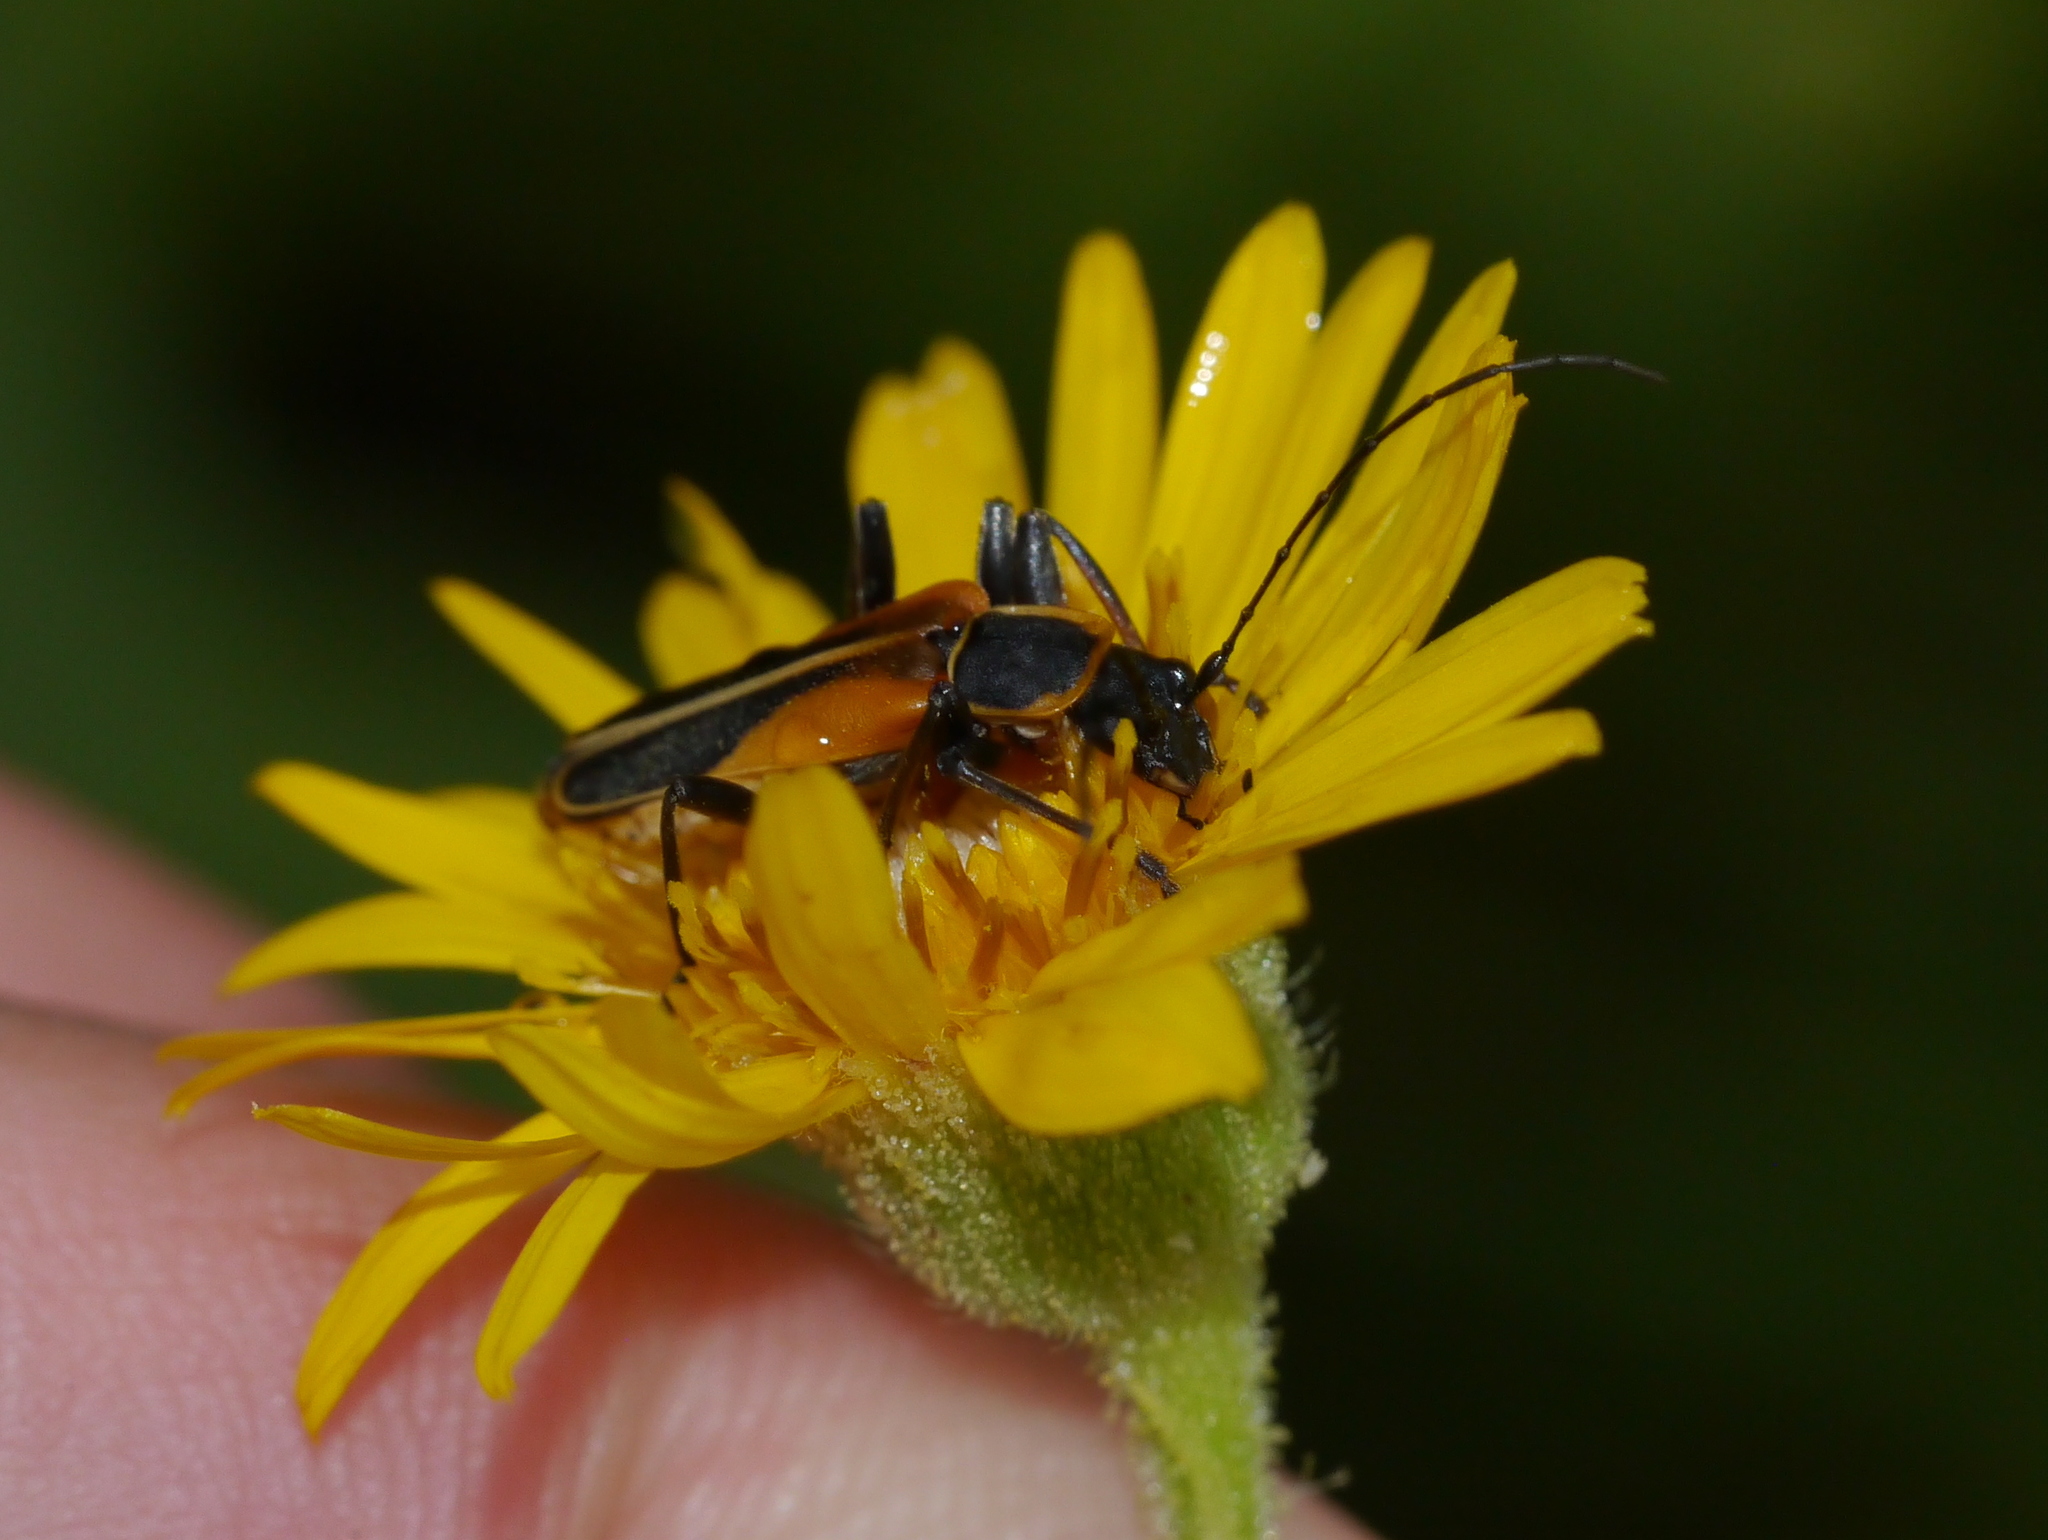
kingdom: Animalia
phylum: Arthropoda
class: Insecta
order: Coleoptera
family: Cantharidae
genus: Chauliognathus
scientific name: Chauliognathus opacus
